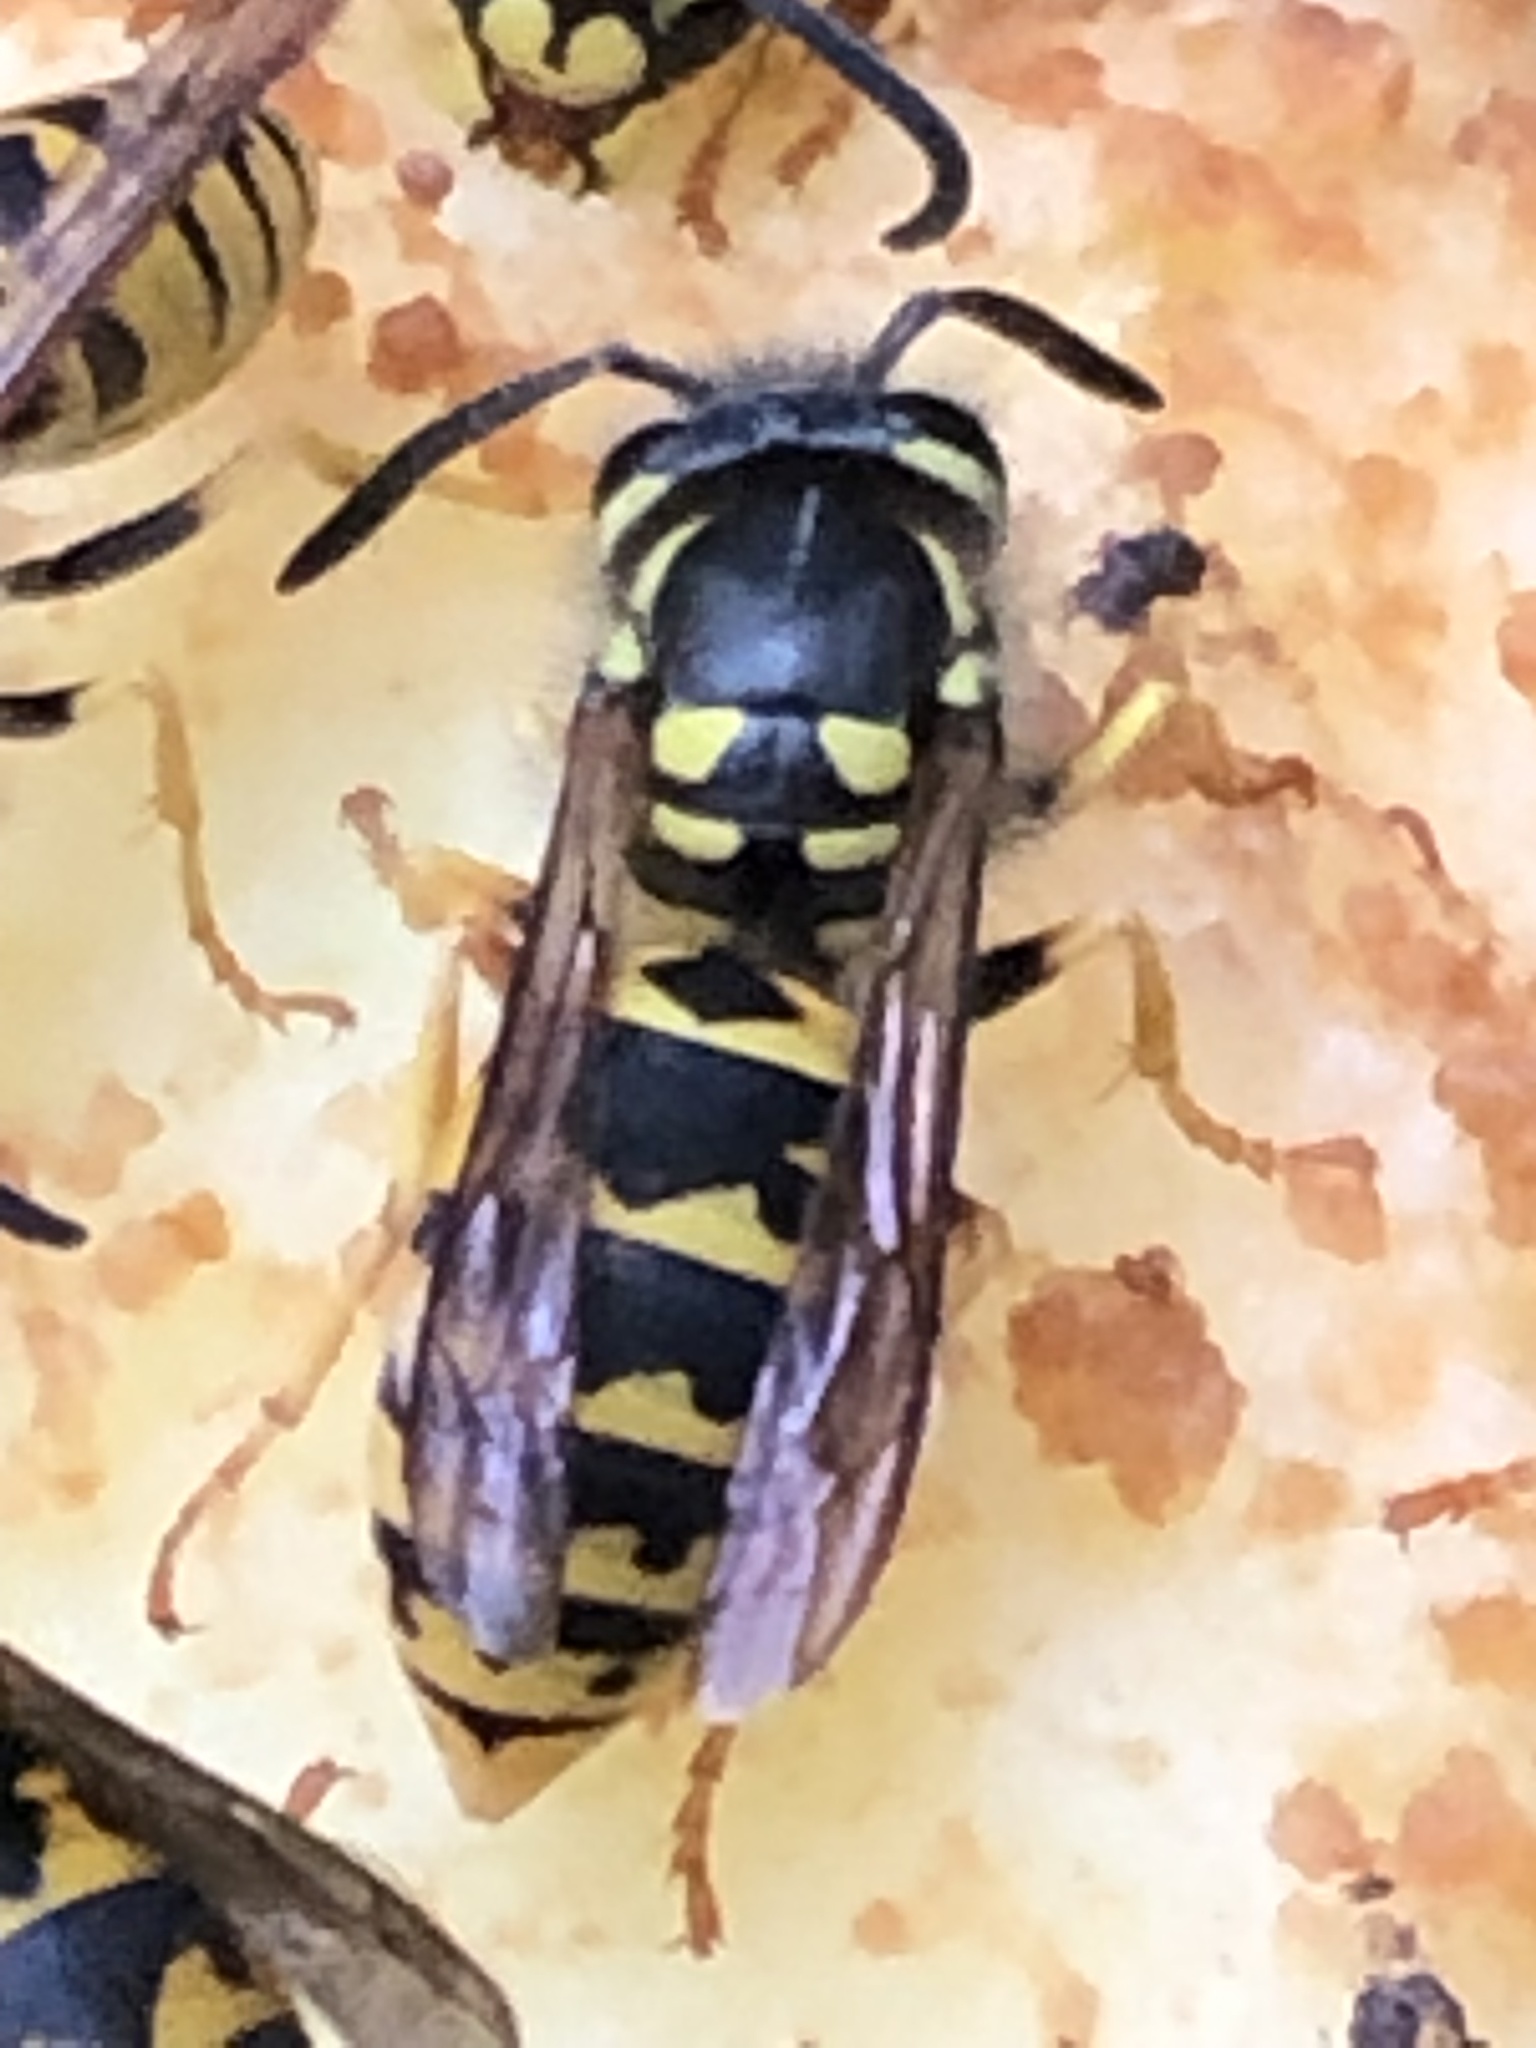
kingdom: Animalia
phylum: Arthropoda
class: Insecta
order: Hymenoptera
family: Vespidae
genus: Vespula
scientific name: Vespula germanica
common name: German wasp
